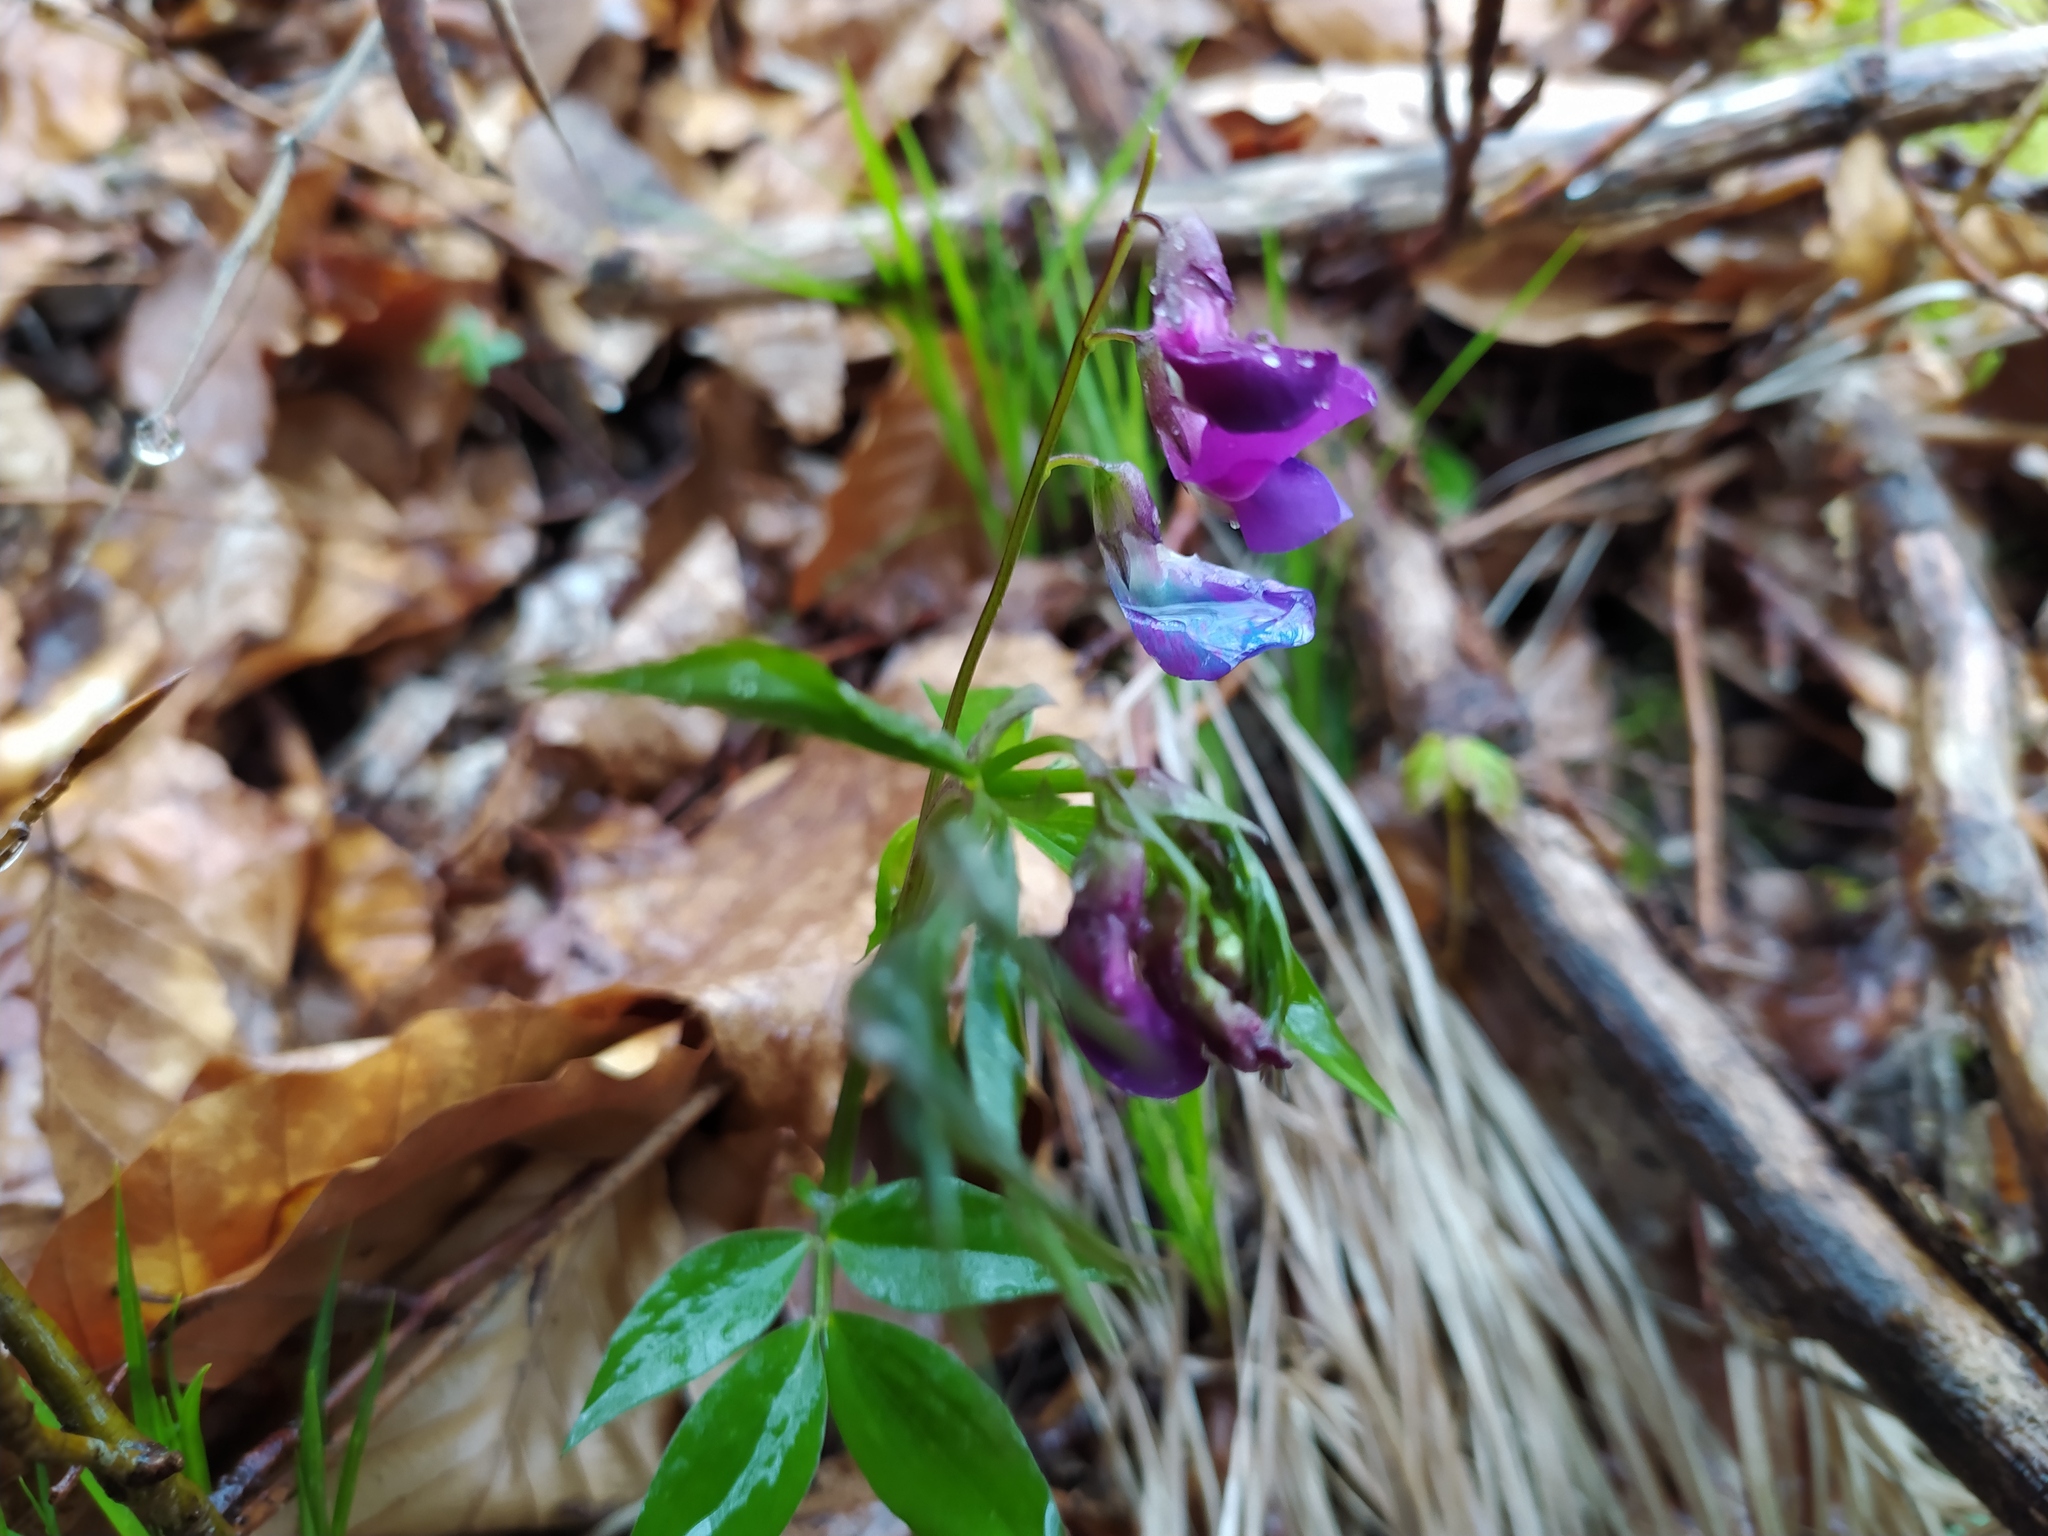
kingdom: Plantae
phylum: Tracheophyta
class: Magnoliopsida
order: Fabales
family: Fabaceae
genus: Lathyrus
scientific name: Lathyrus vernus
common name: Spring pea
